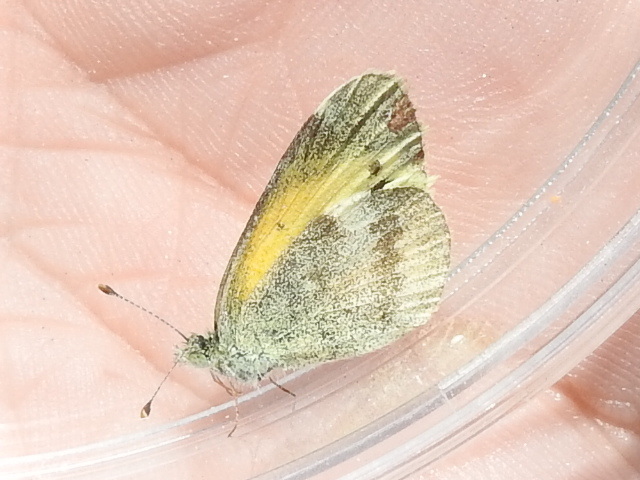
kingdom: Animalia
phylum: Arthropoda
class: Insecta
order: Lepidoptera
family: Pieridae
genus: Nathalis
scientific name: Nathalis iole
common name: Dainty sulphur
